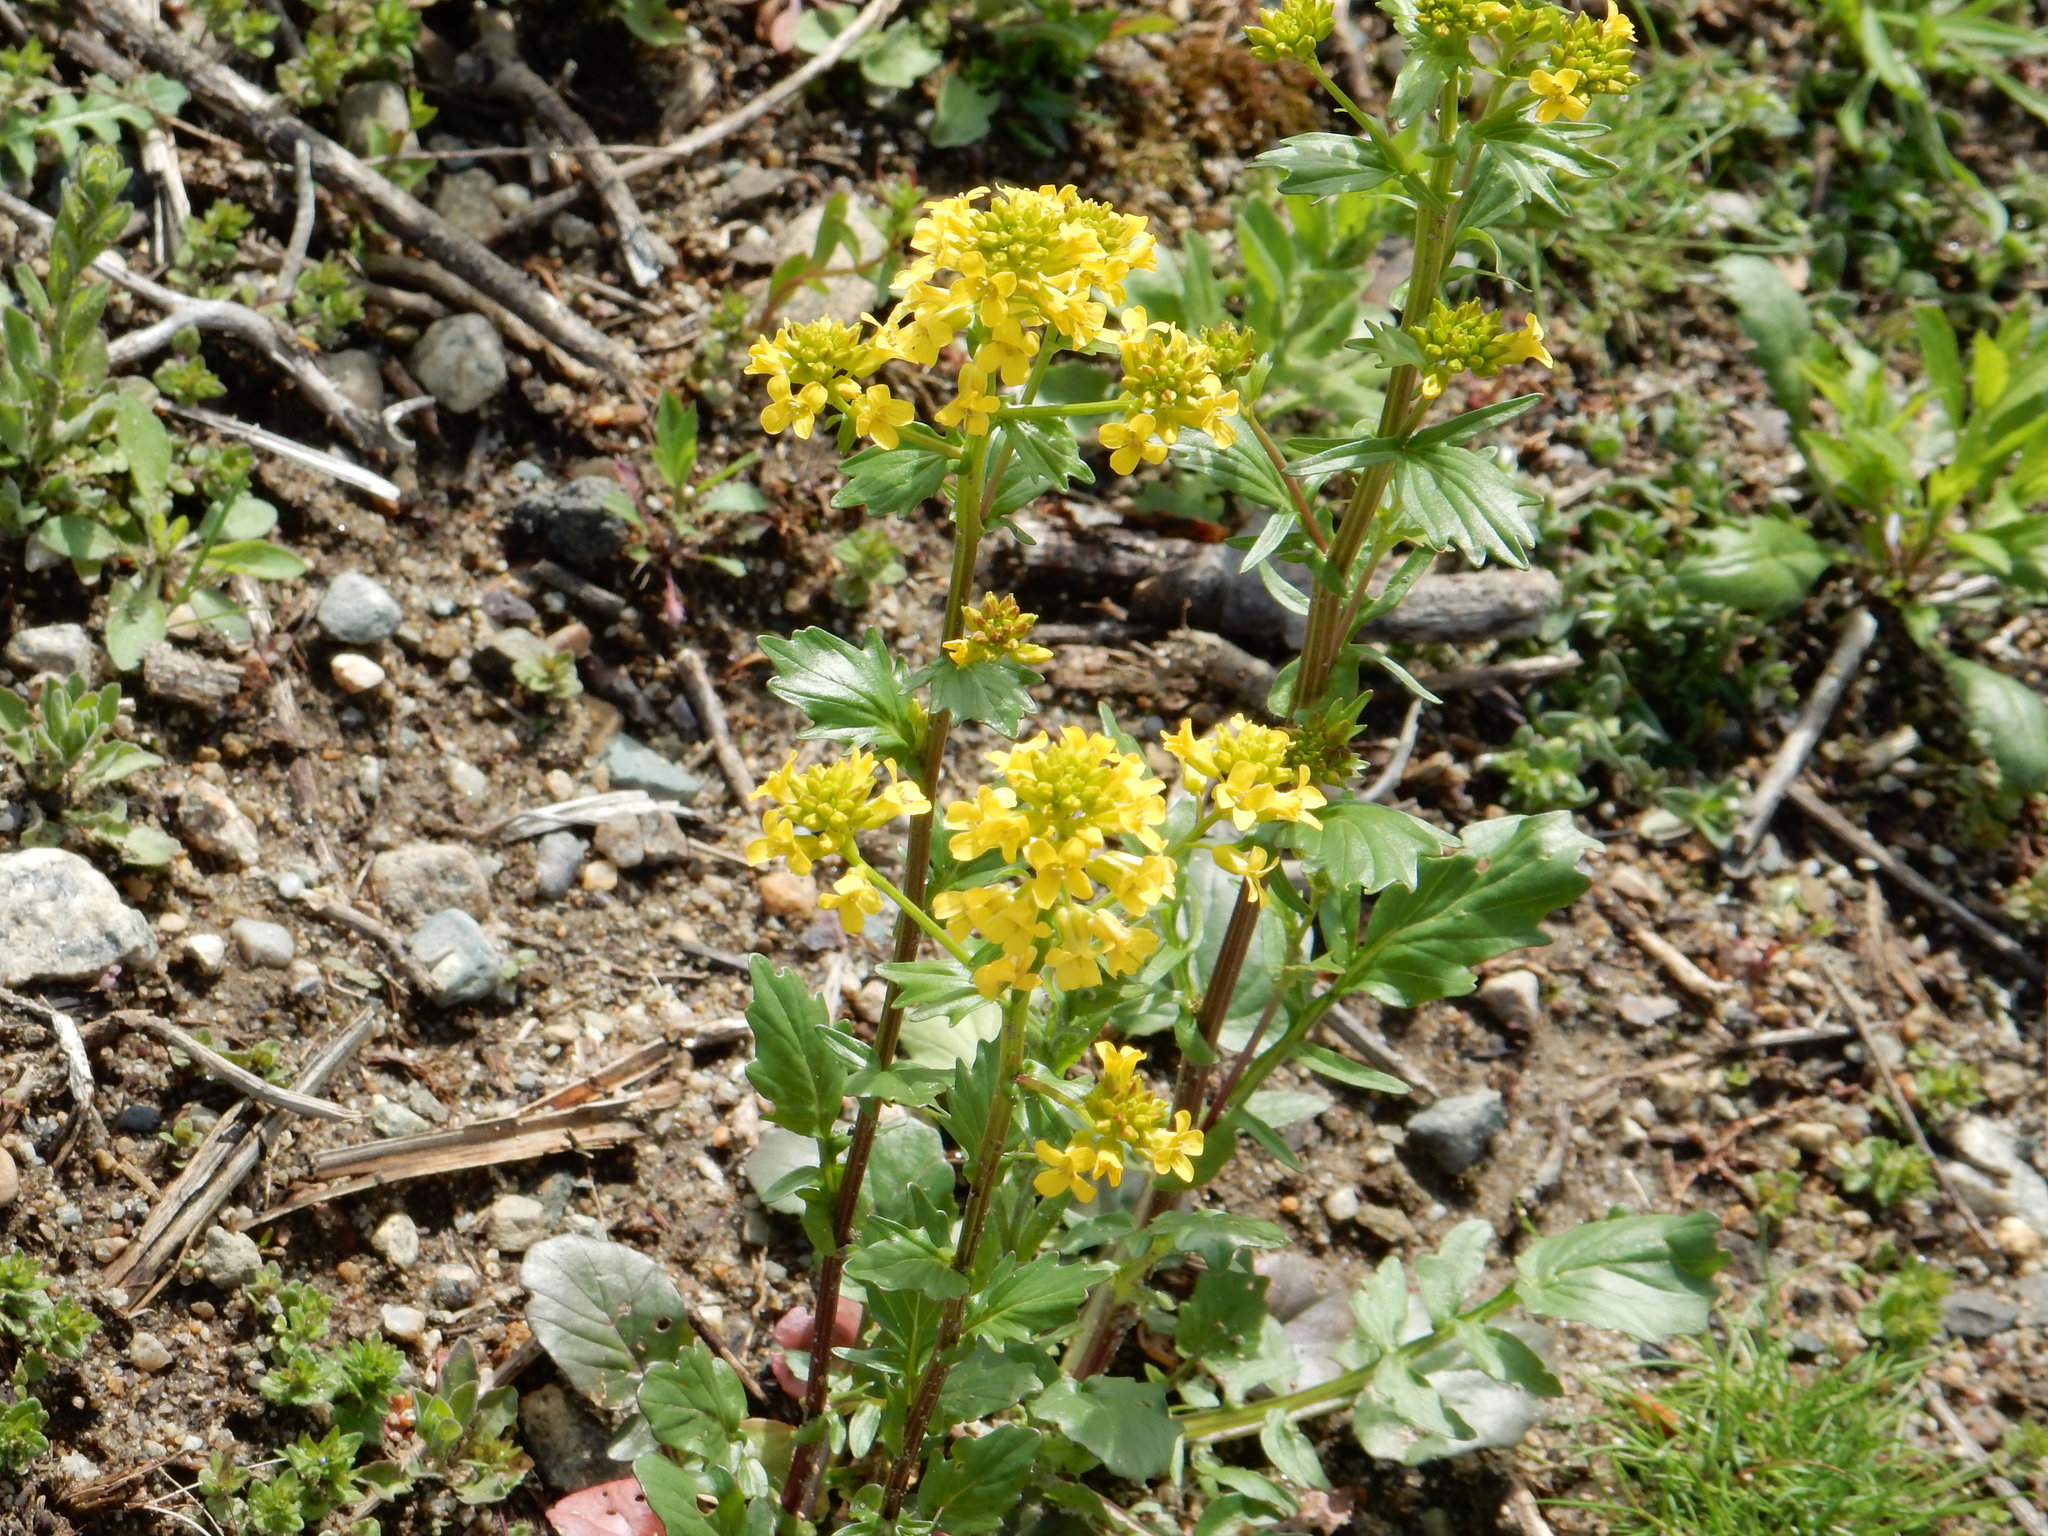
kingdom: Plantae
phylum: Tracheophyta
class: Magnoliopsida
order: Brassicales
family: Brassicaceae
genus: Barbarea
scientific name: Barbarea vulgaris
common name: Cressy-greens
